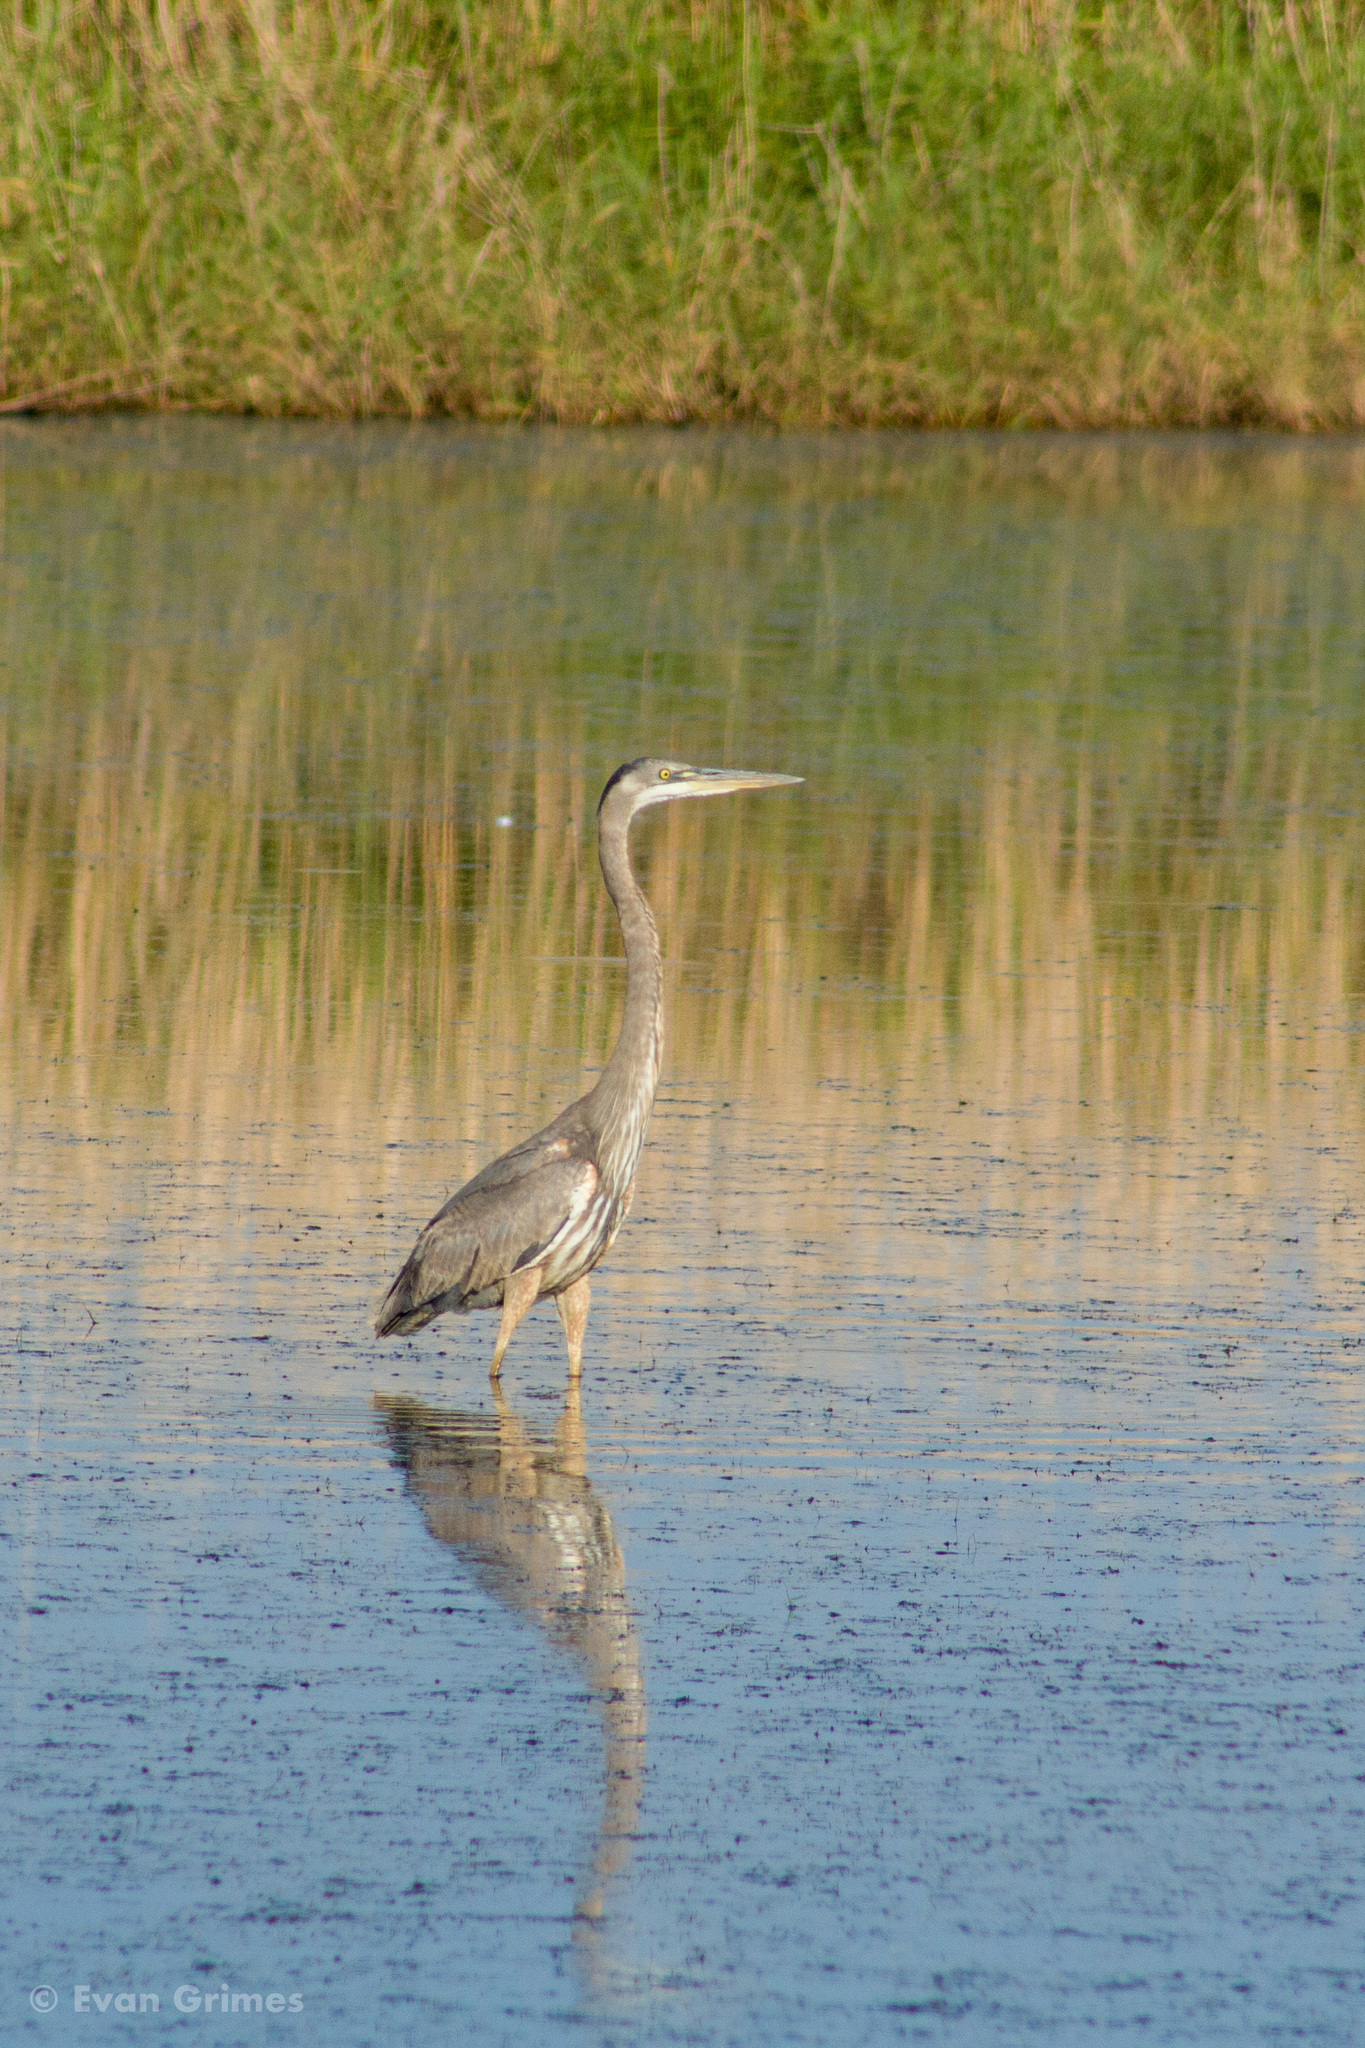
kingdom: Animalia
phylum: Chordata
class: Aves
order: Pelecaniformes
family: Ardeidae
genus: Ardea
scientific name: Ardea herodias
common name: Great blue heron
